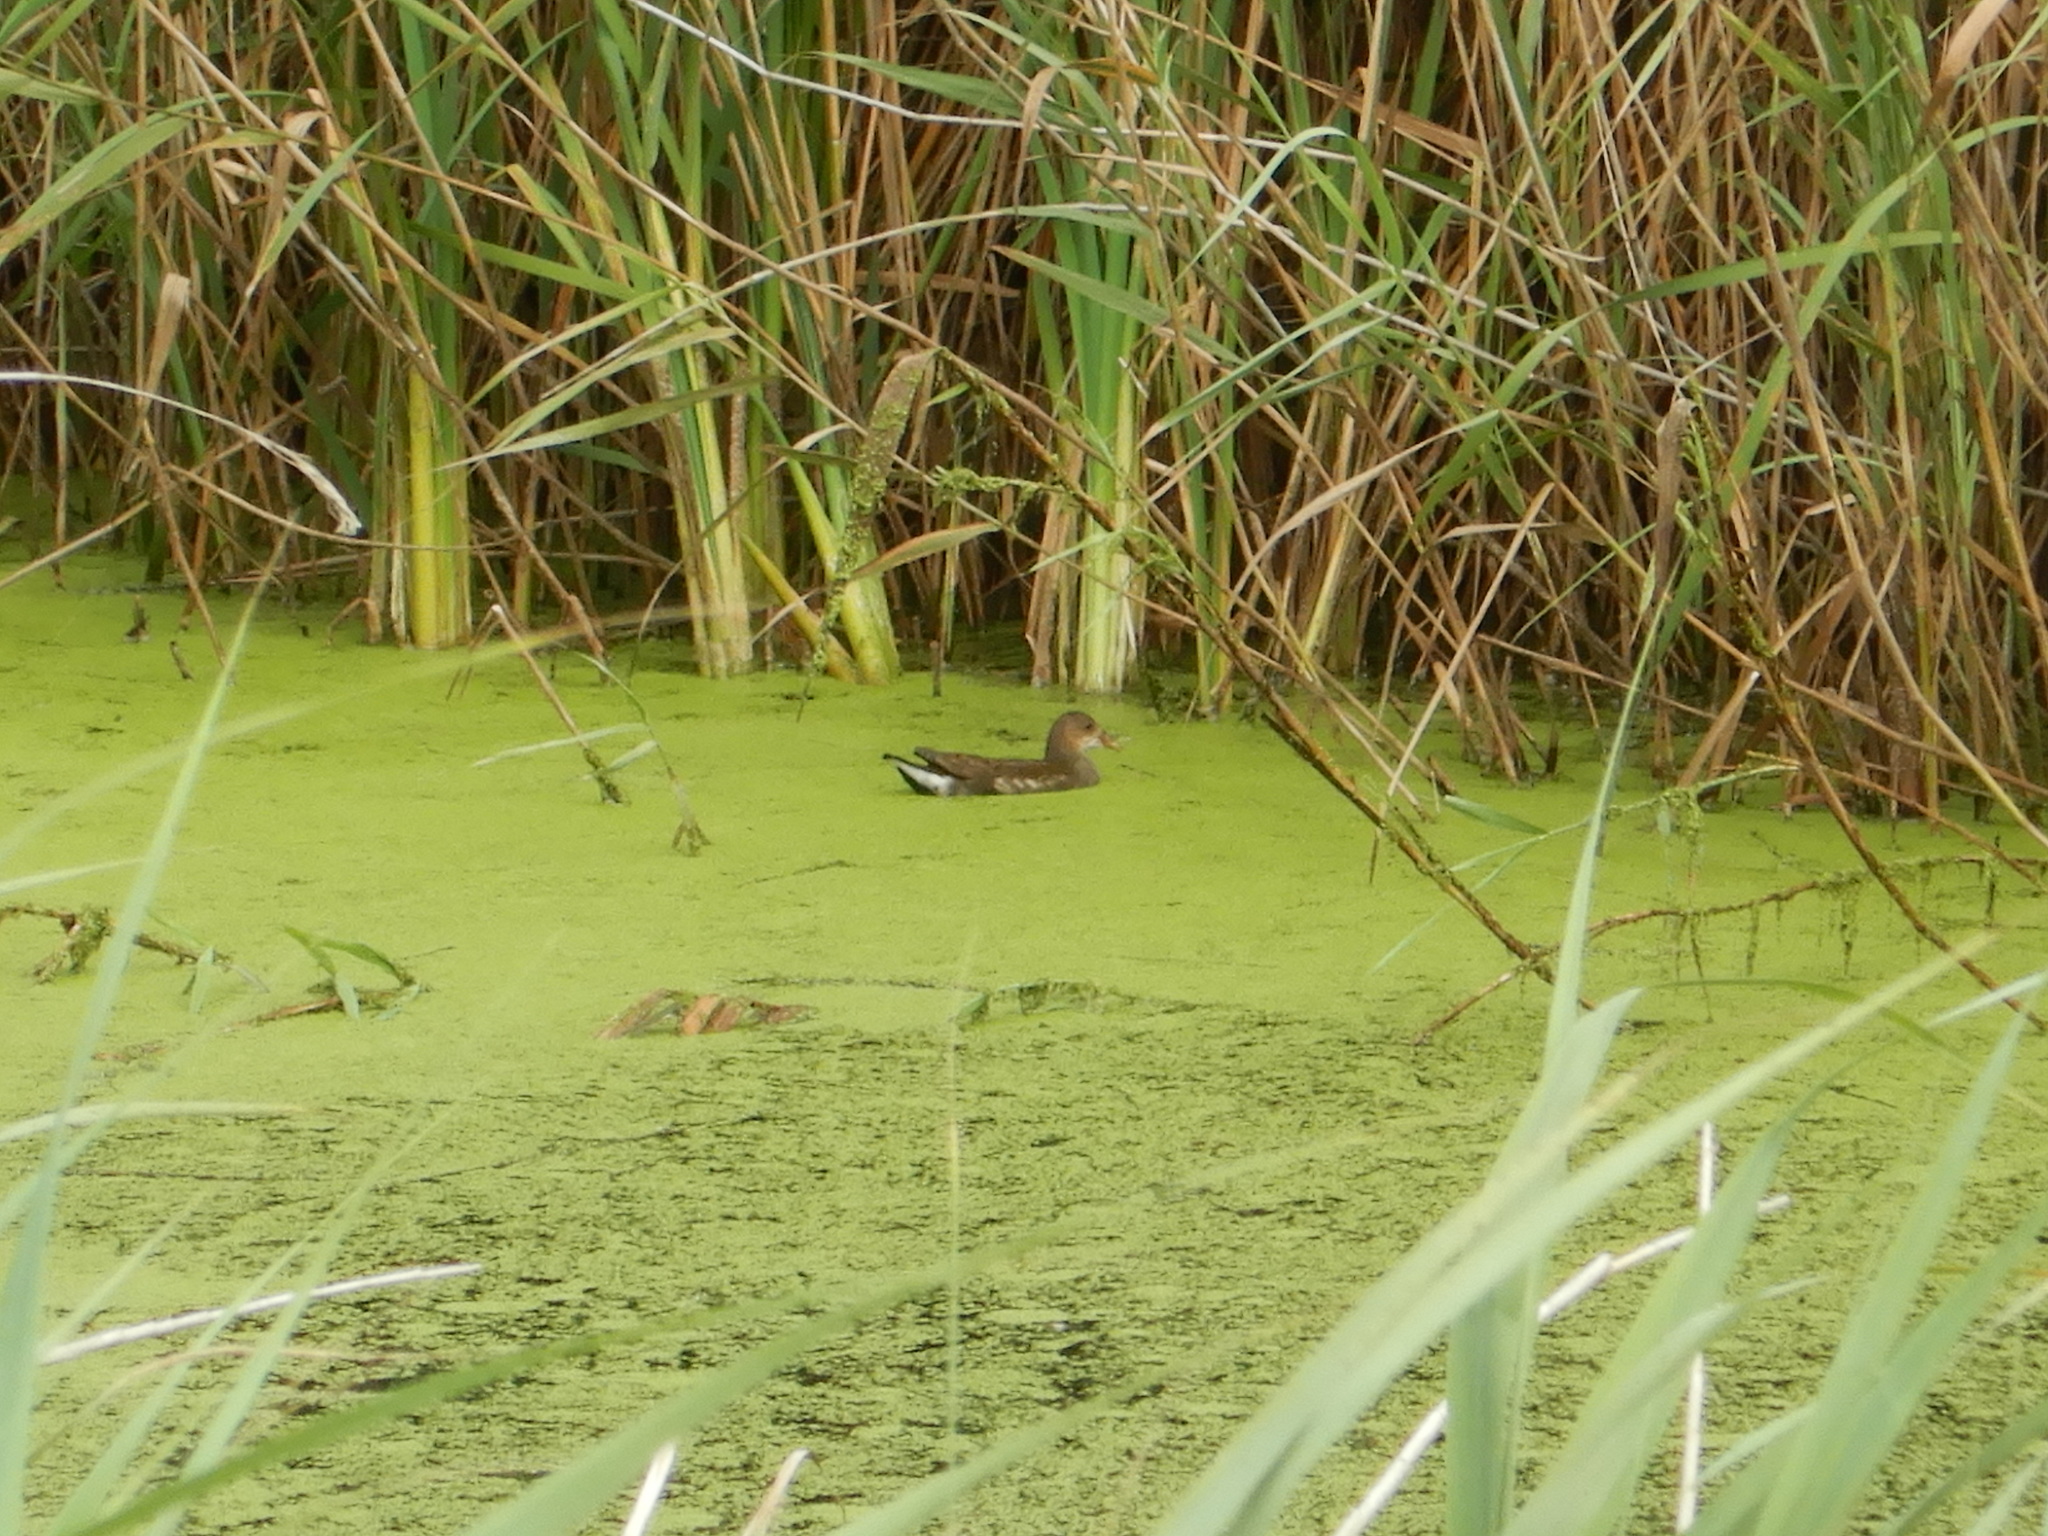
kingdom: Animalia
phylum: Chordata
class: Aves
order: Gruiformes
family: Rallidae
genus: Gallinula
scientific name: Gallinula chloropus
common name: Common moorhen
